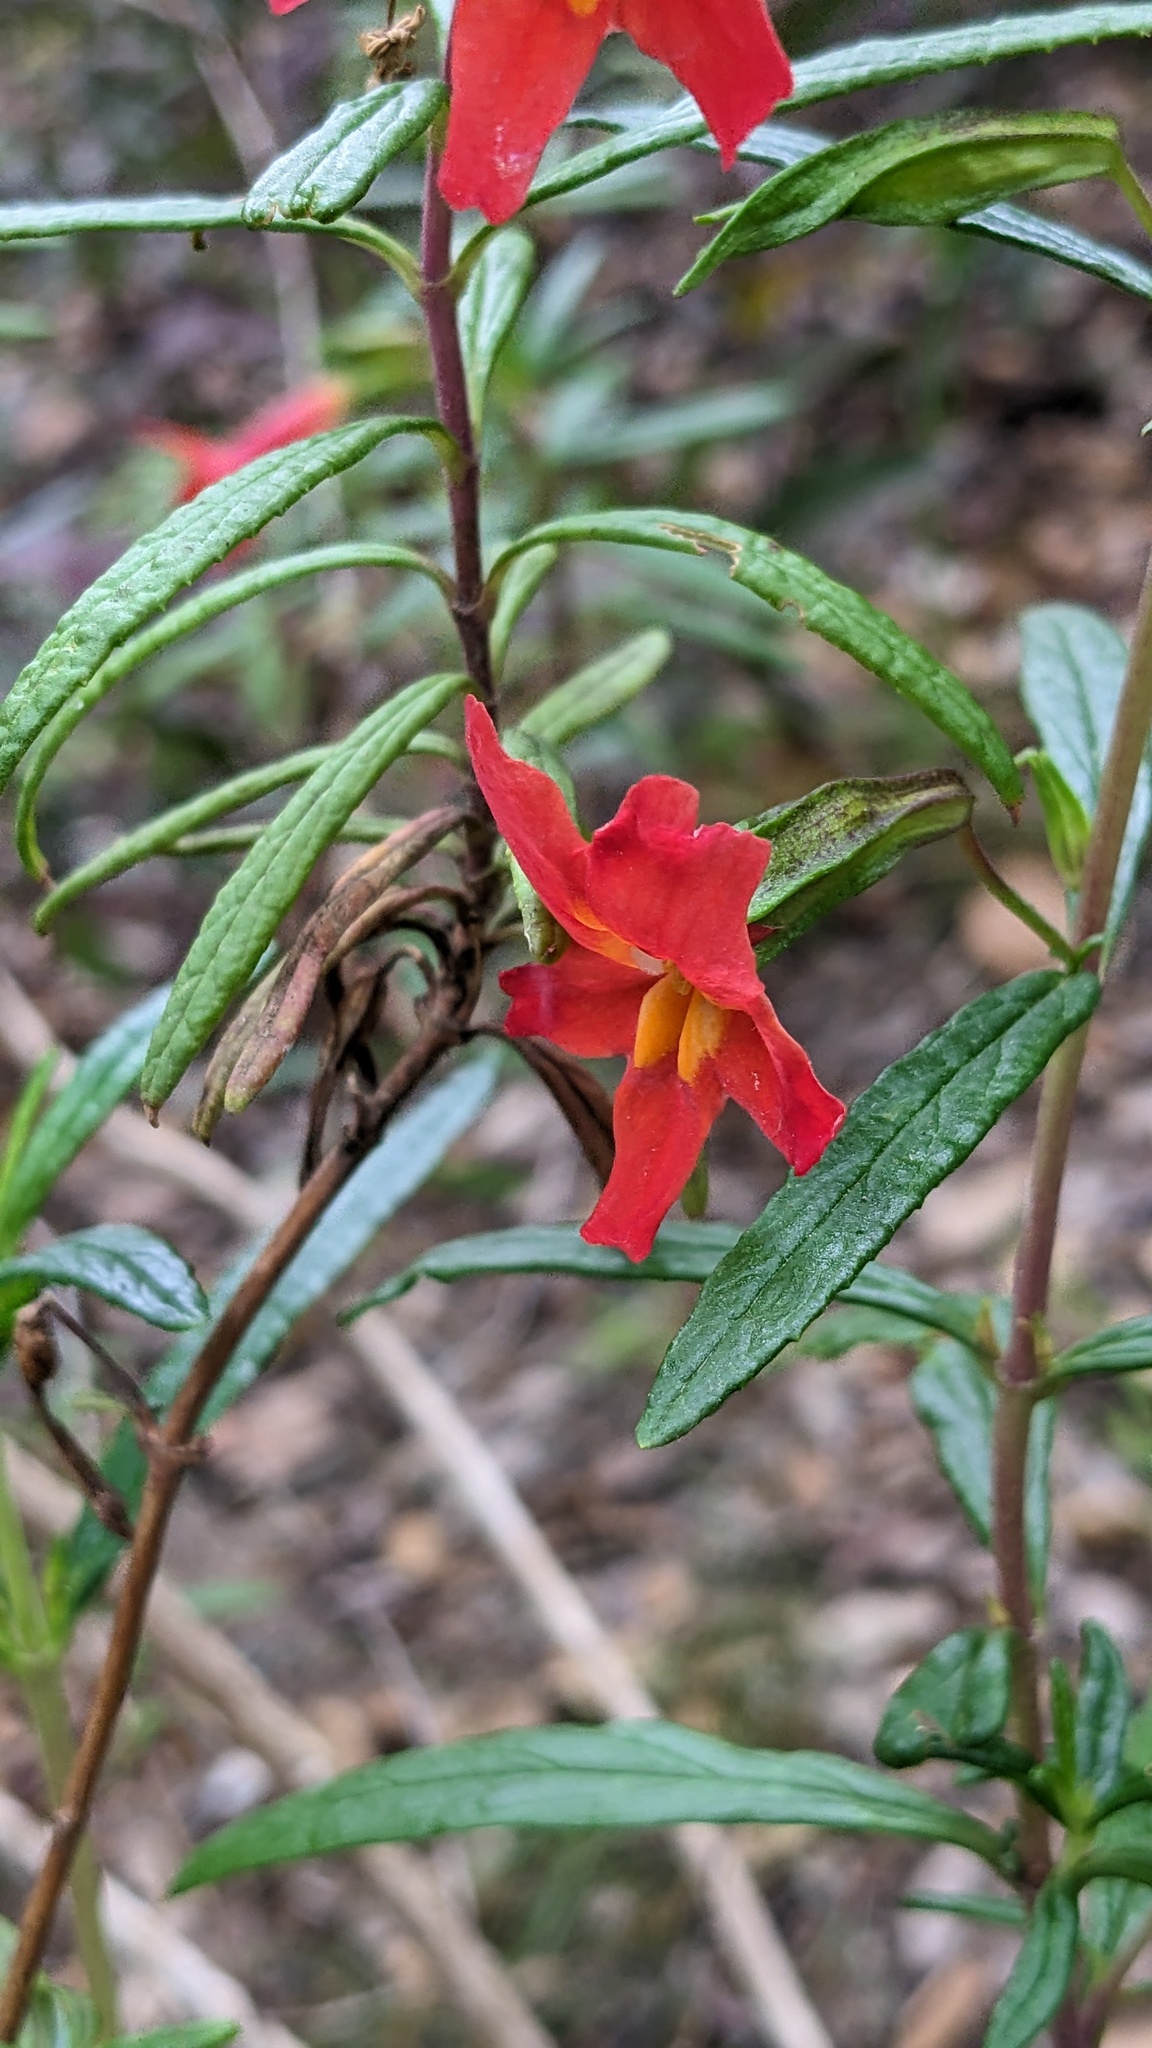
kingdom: Plantae
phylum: Tracheophyta
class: Magnoliopsida
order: Lamiales
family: Phrymaceae
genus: Diplacus
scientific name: Diplacus puniceus
